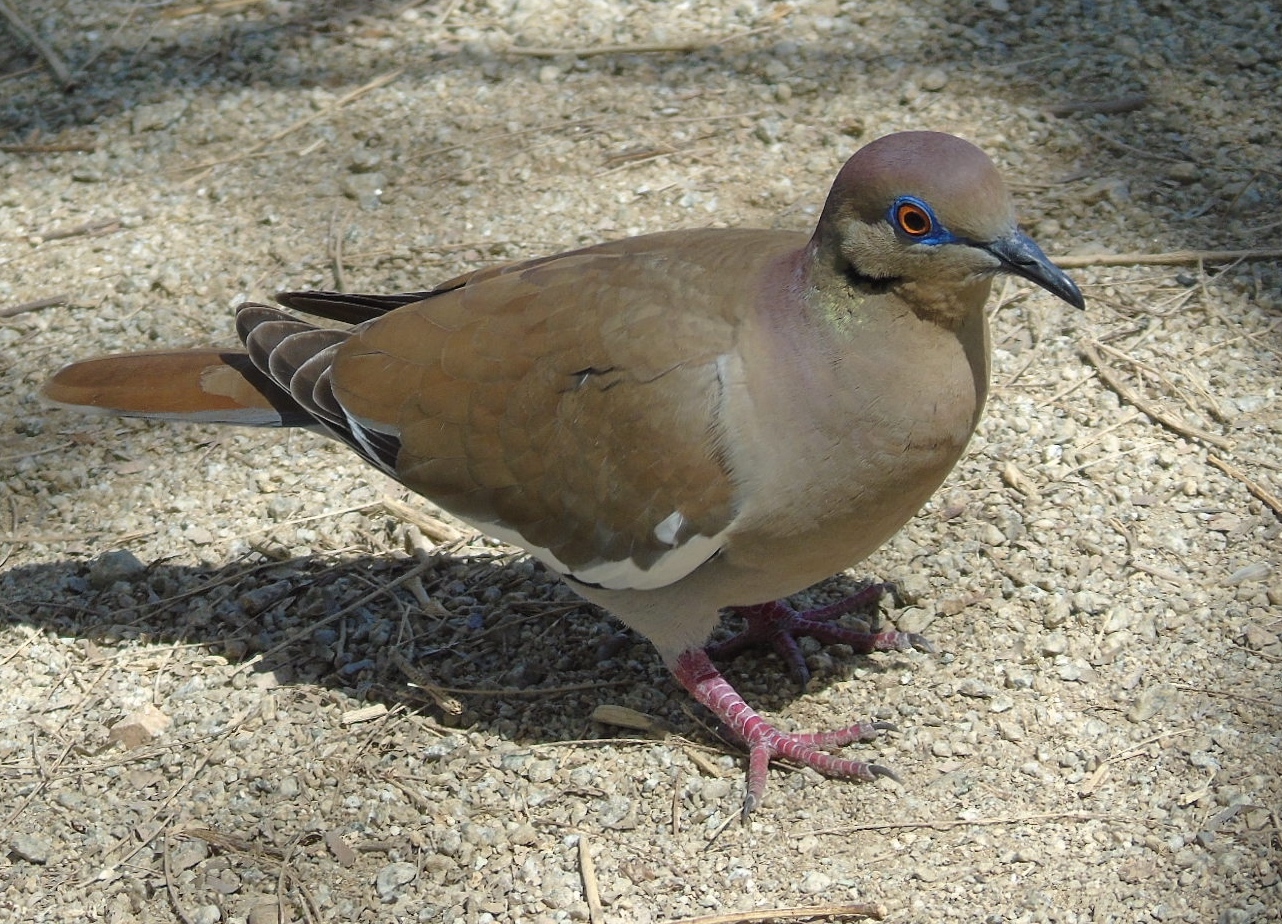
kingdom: Animalia
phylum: Chordata
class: Aves
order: Columbiformes
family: Columbidae
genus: Zenaida
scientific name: Zenaida asiatica
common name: White-winged dove
